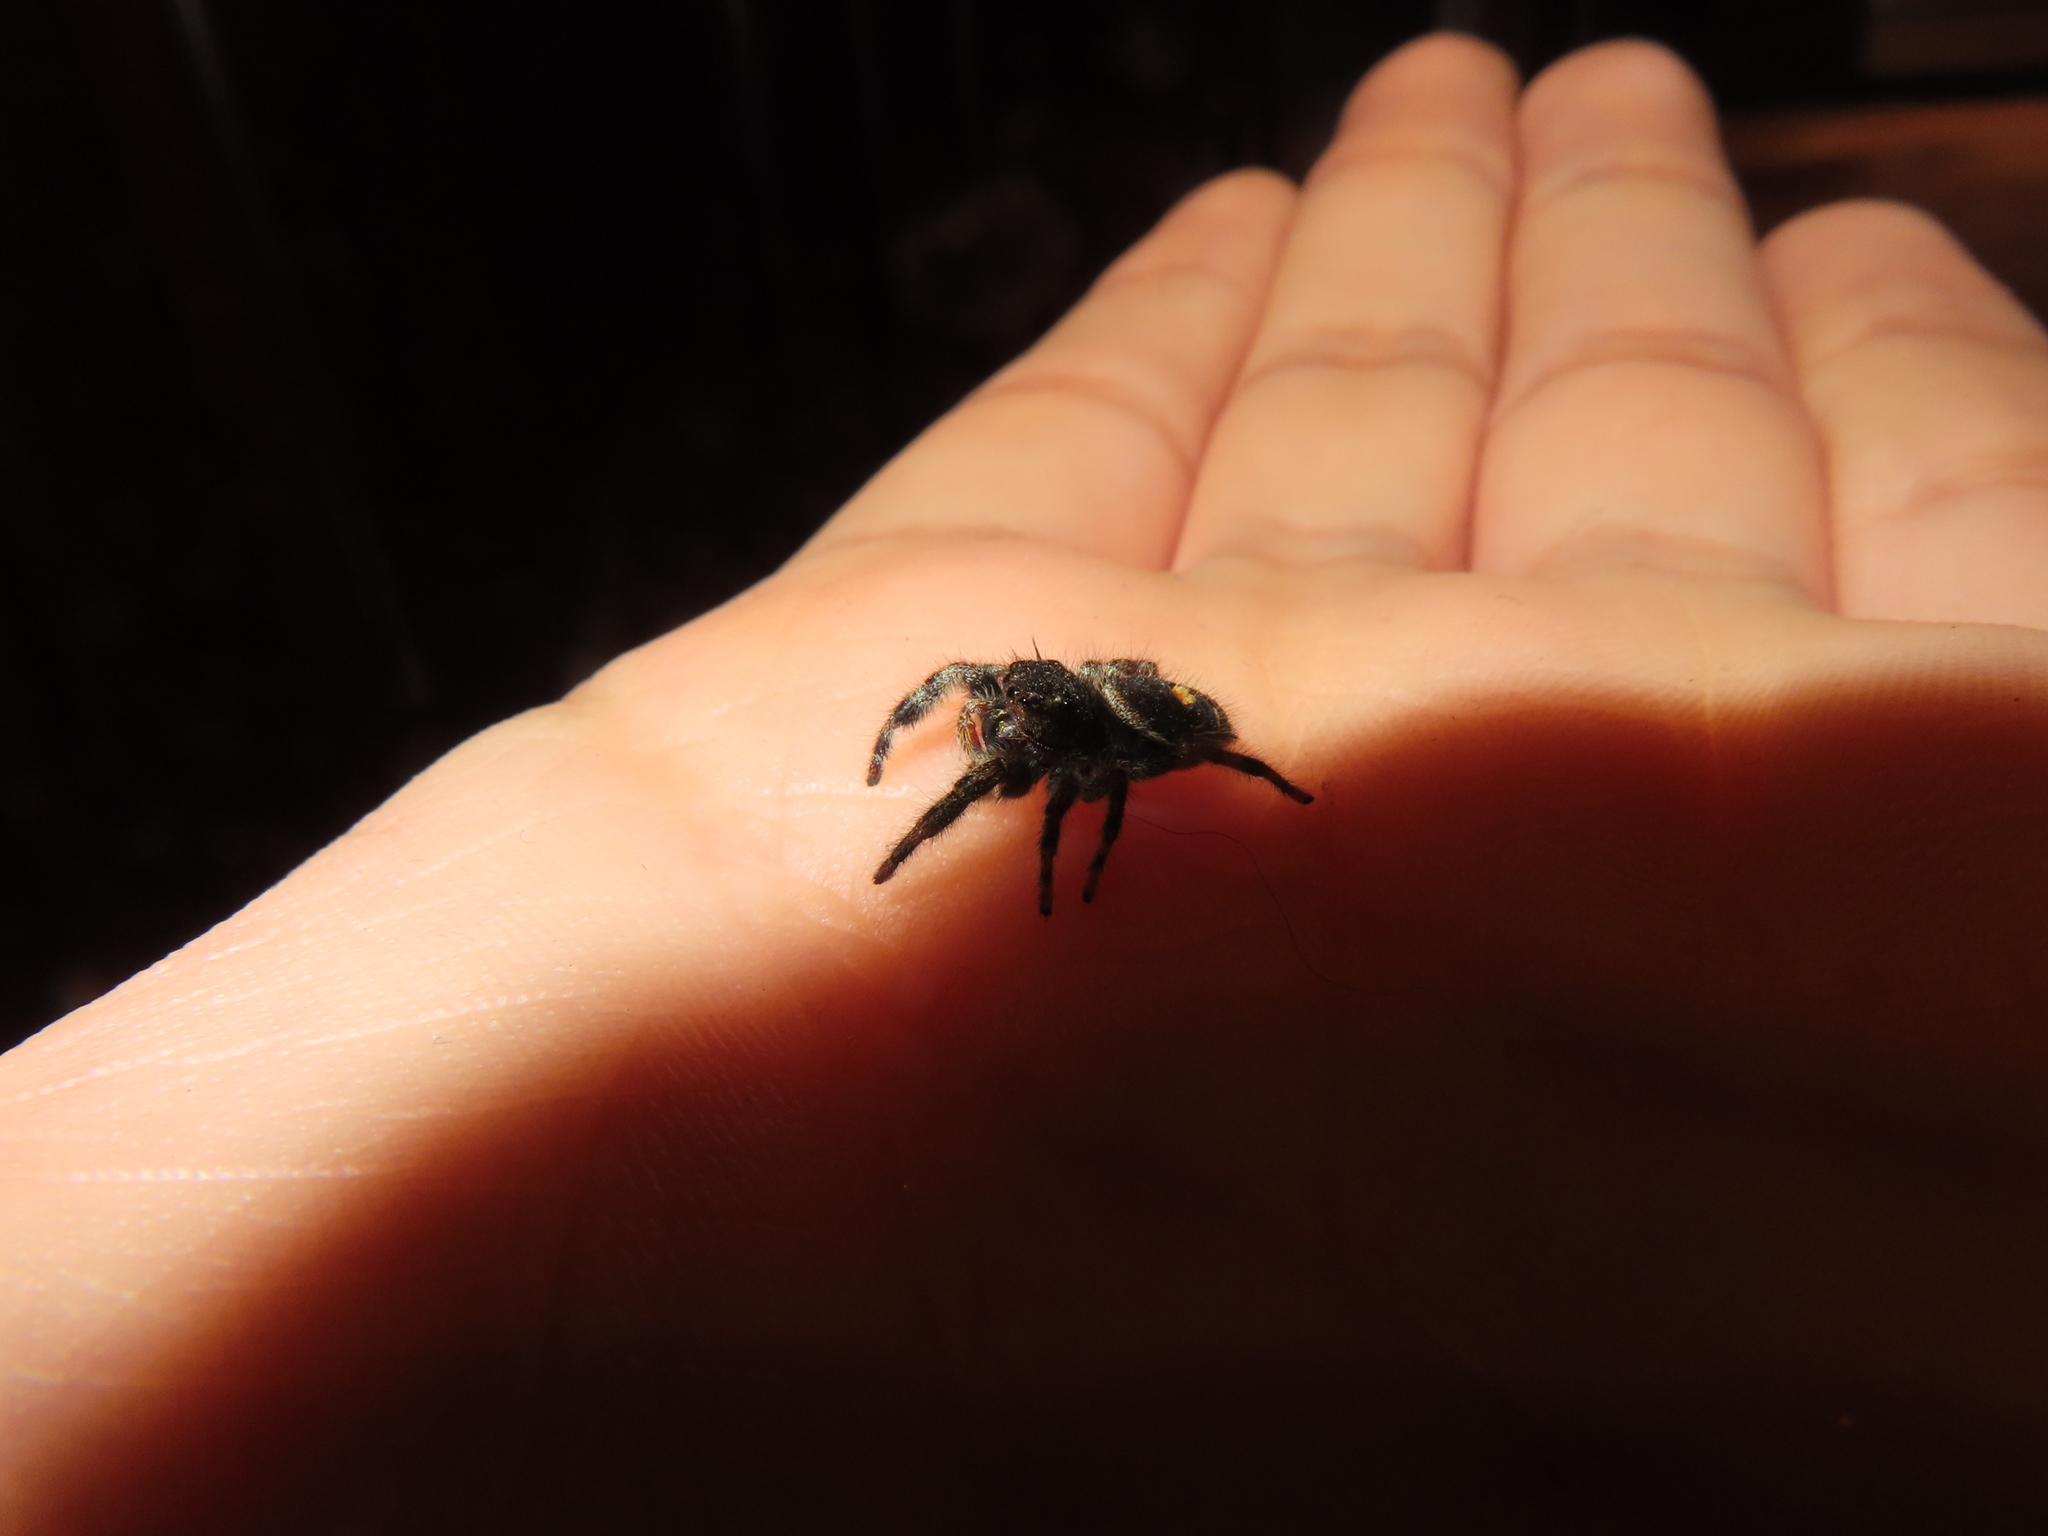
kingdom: Animalia
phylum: Arthropoda
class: Arachnida
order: Araneae
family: Salticidae
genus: Phidippus
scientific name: Phidippus audax
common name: Bold jumper
